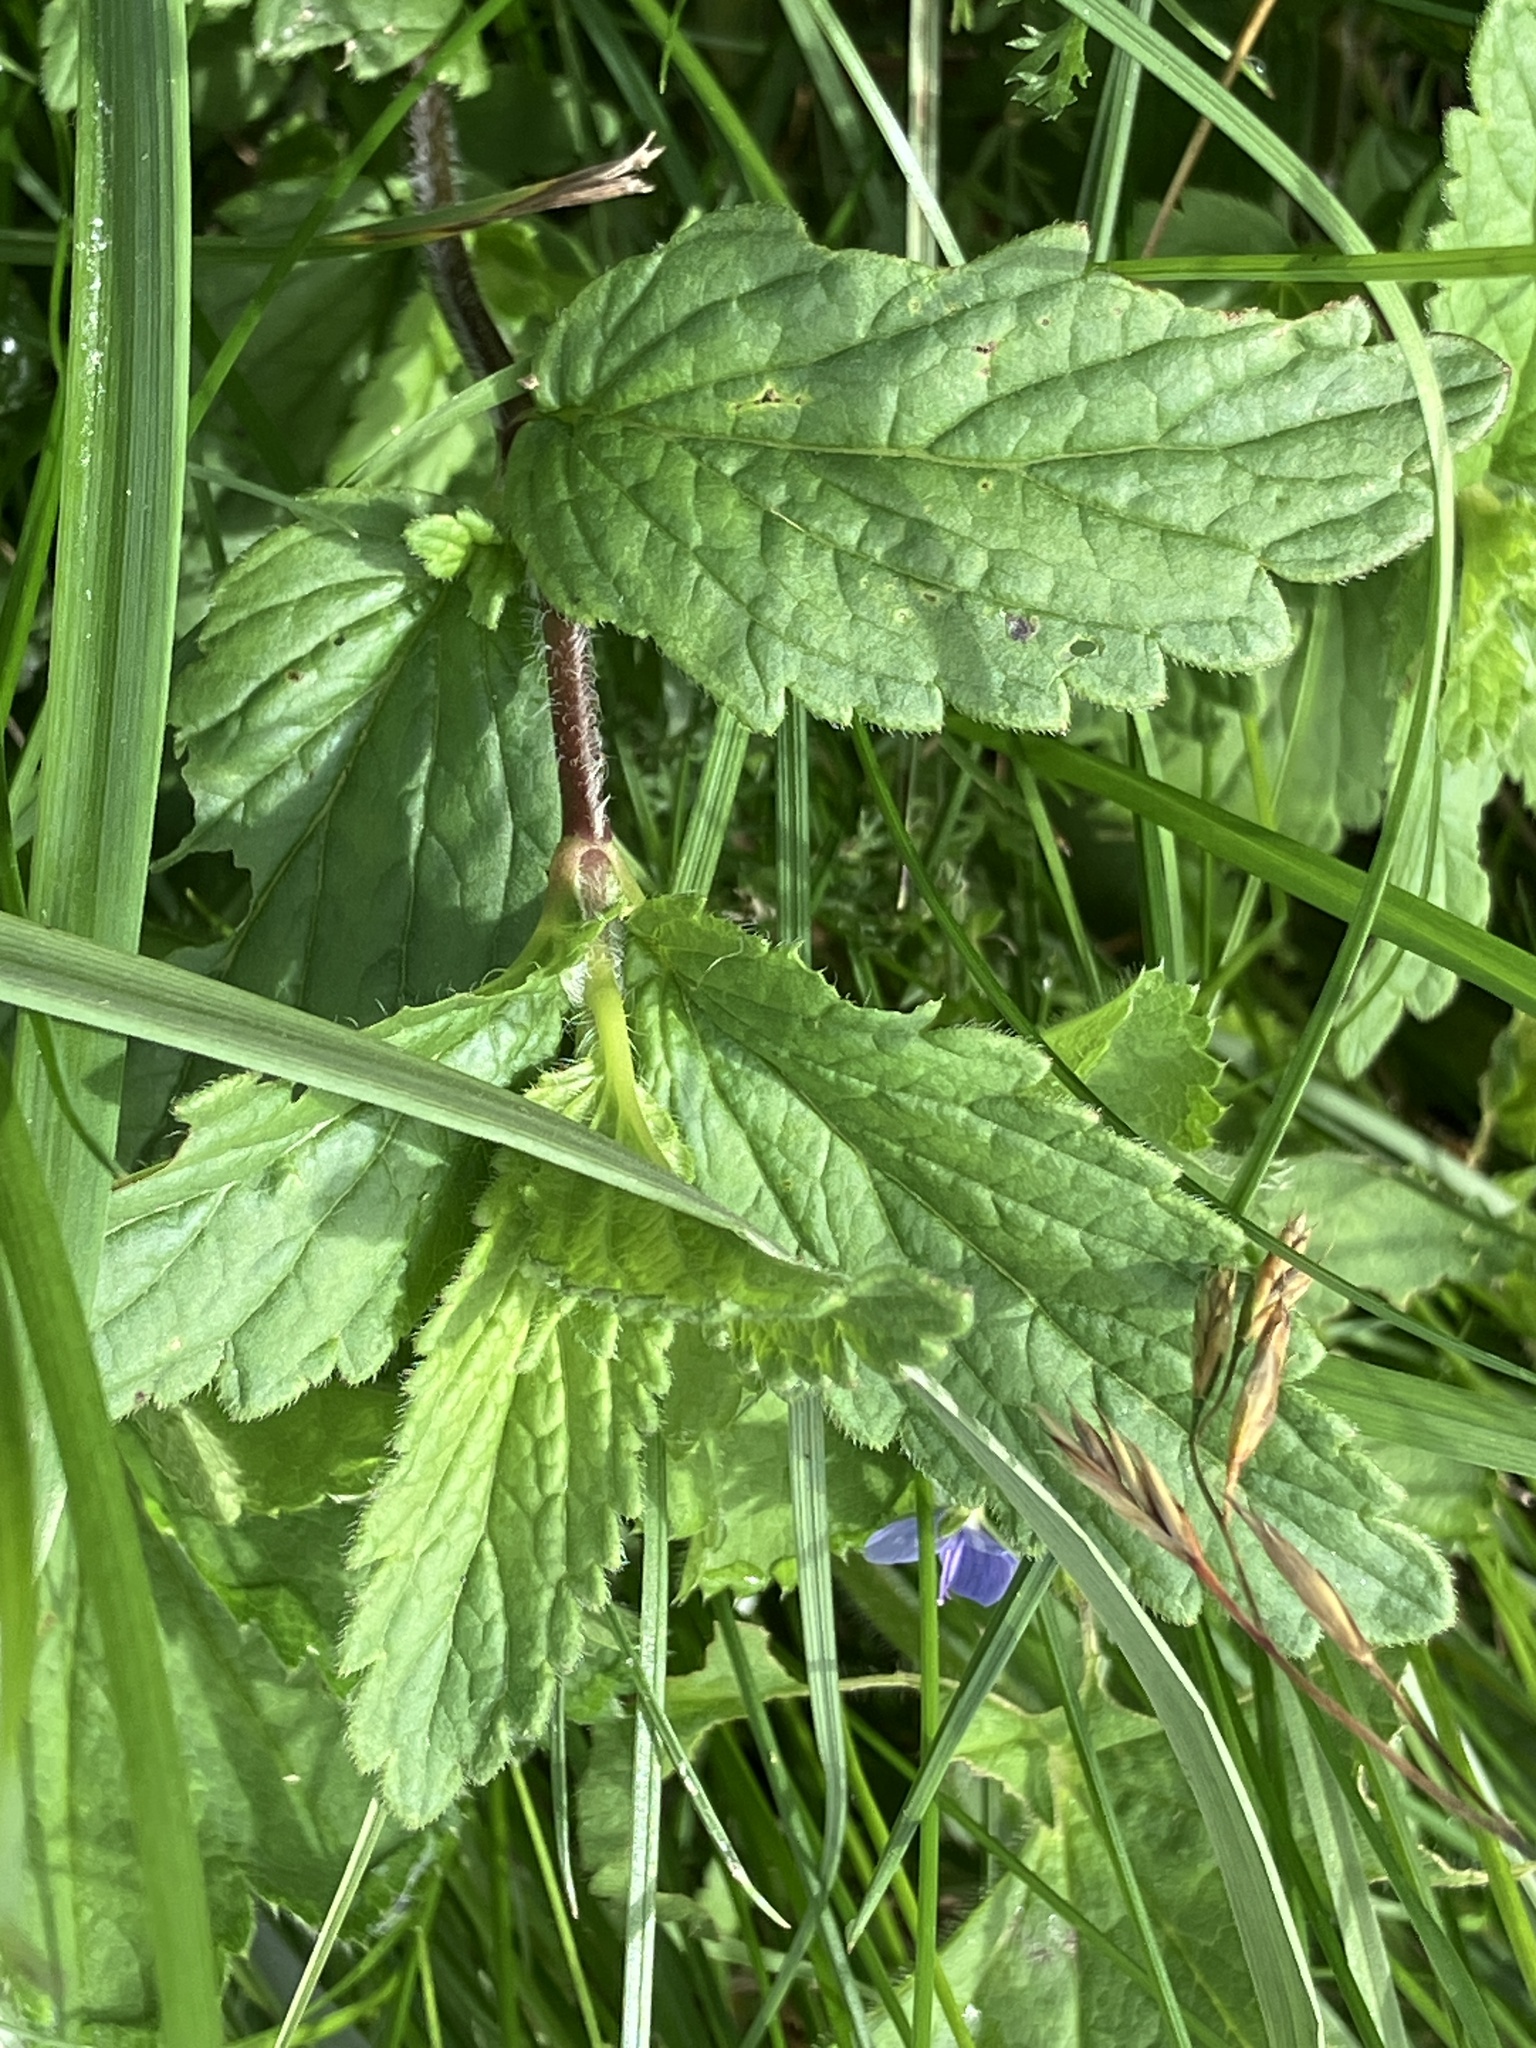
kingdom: Plantae
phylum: Tracheophyta
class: Magnoliopsida
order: Lamiales
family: Plantaginaceae
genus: Veronica
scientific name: Veronica chamaedrys
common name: Germander speedwell
